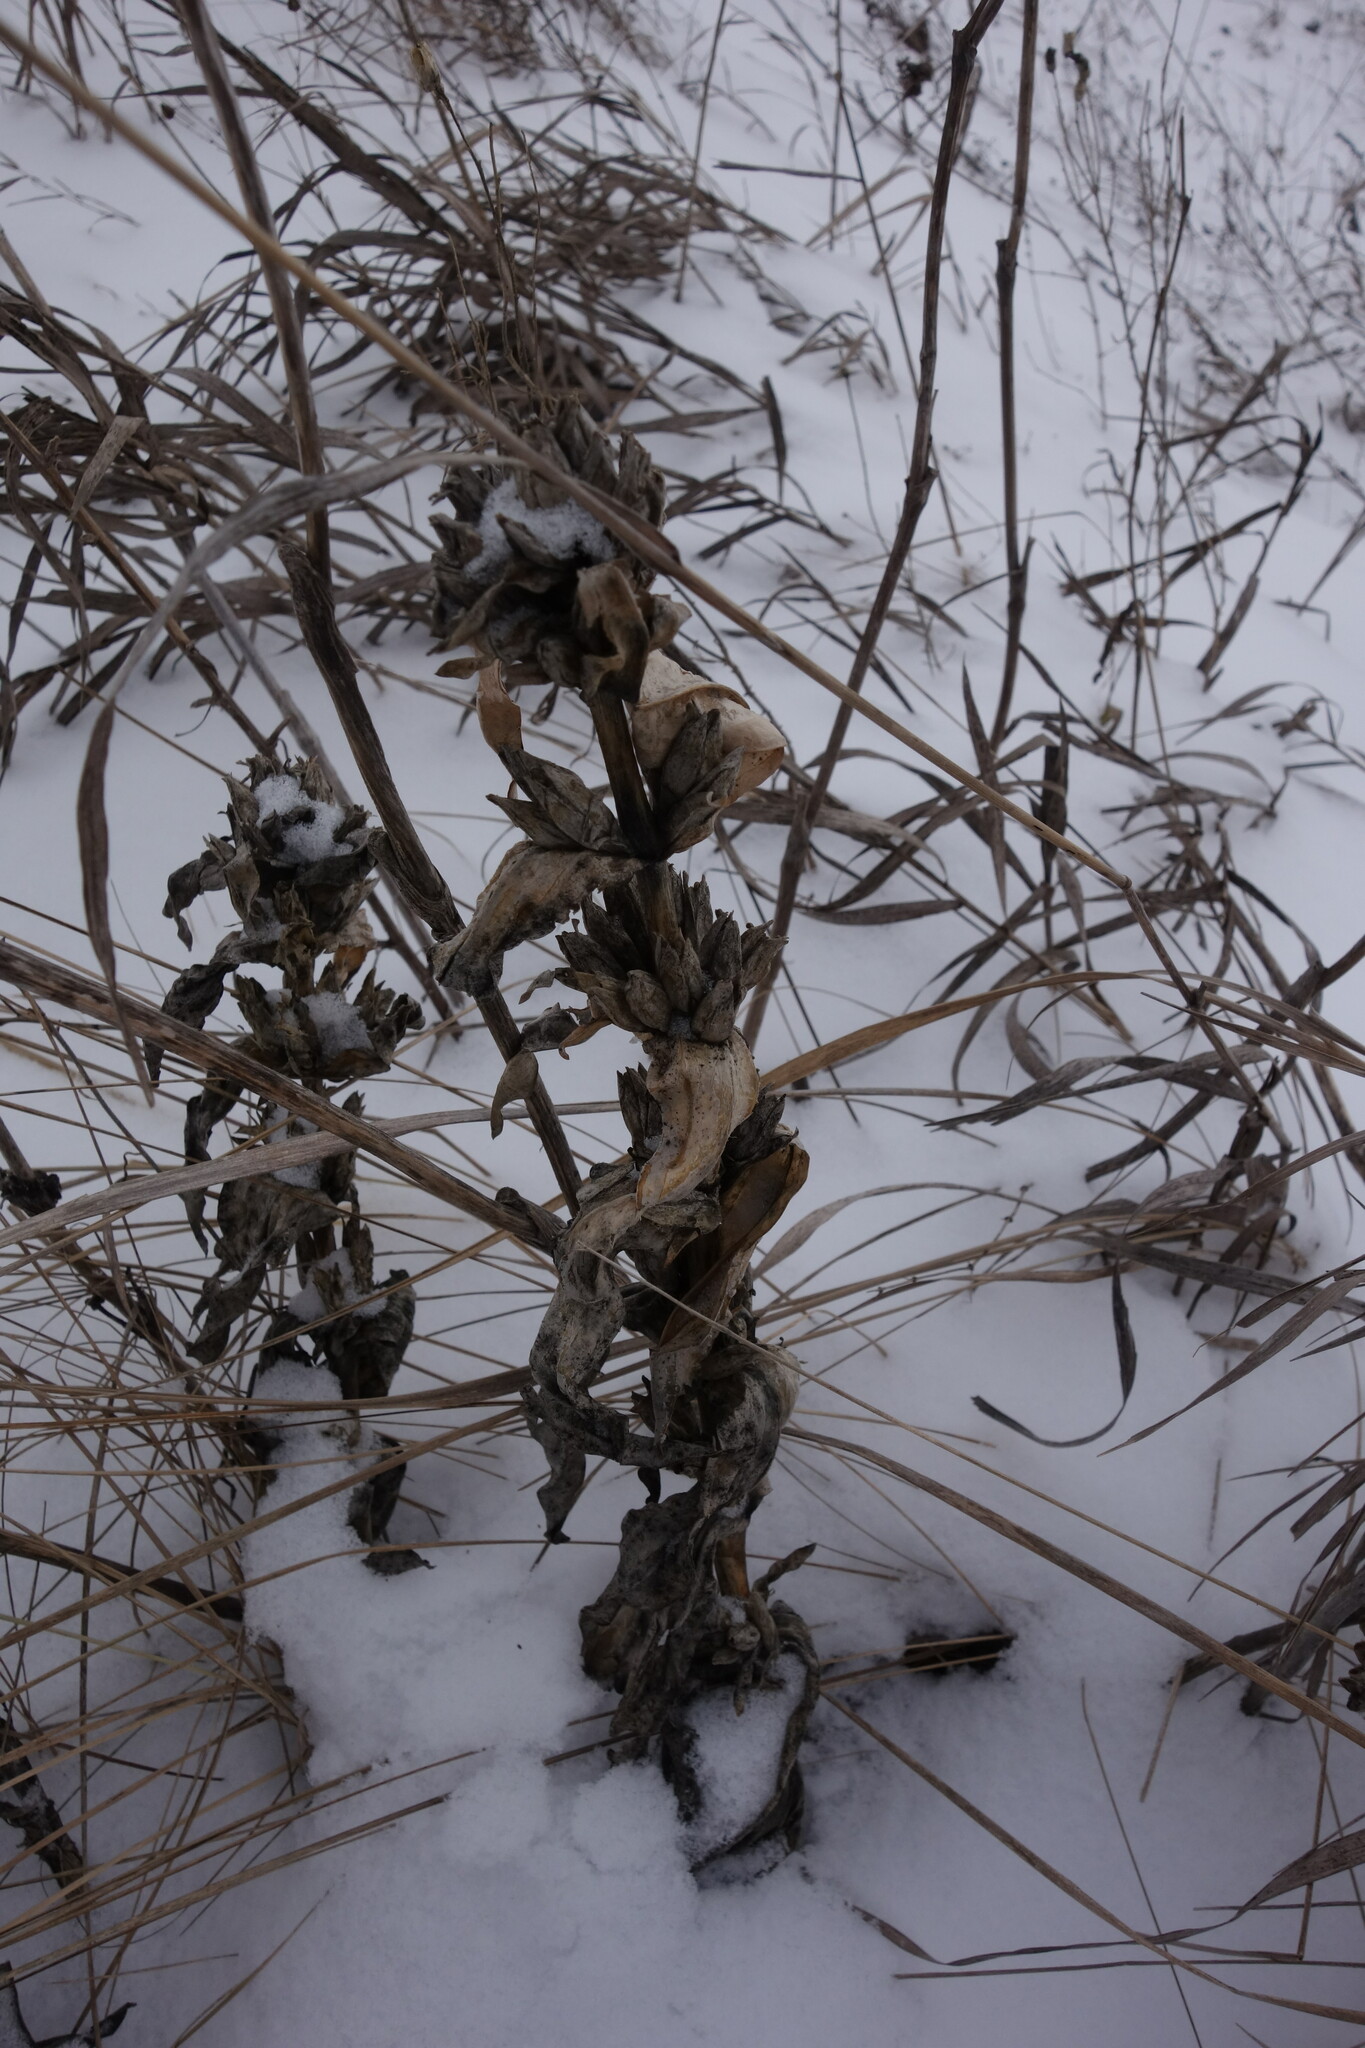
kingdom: Plantae
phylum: Tracheophyta
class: Magnoliopsida
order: Gentianales
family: Gentianaceae
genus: Gentiana
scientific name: Gentiana cruciata
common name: Cross gentian
